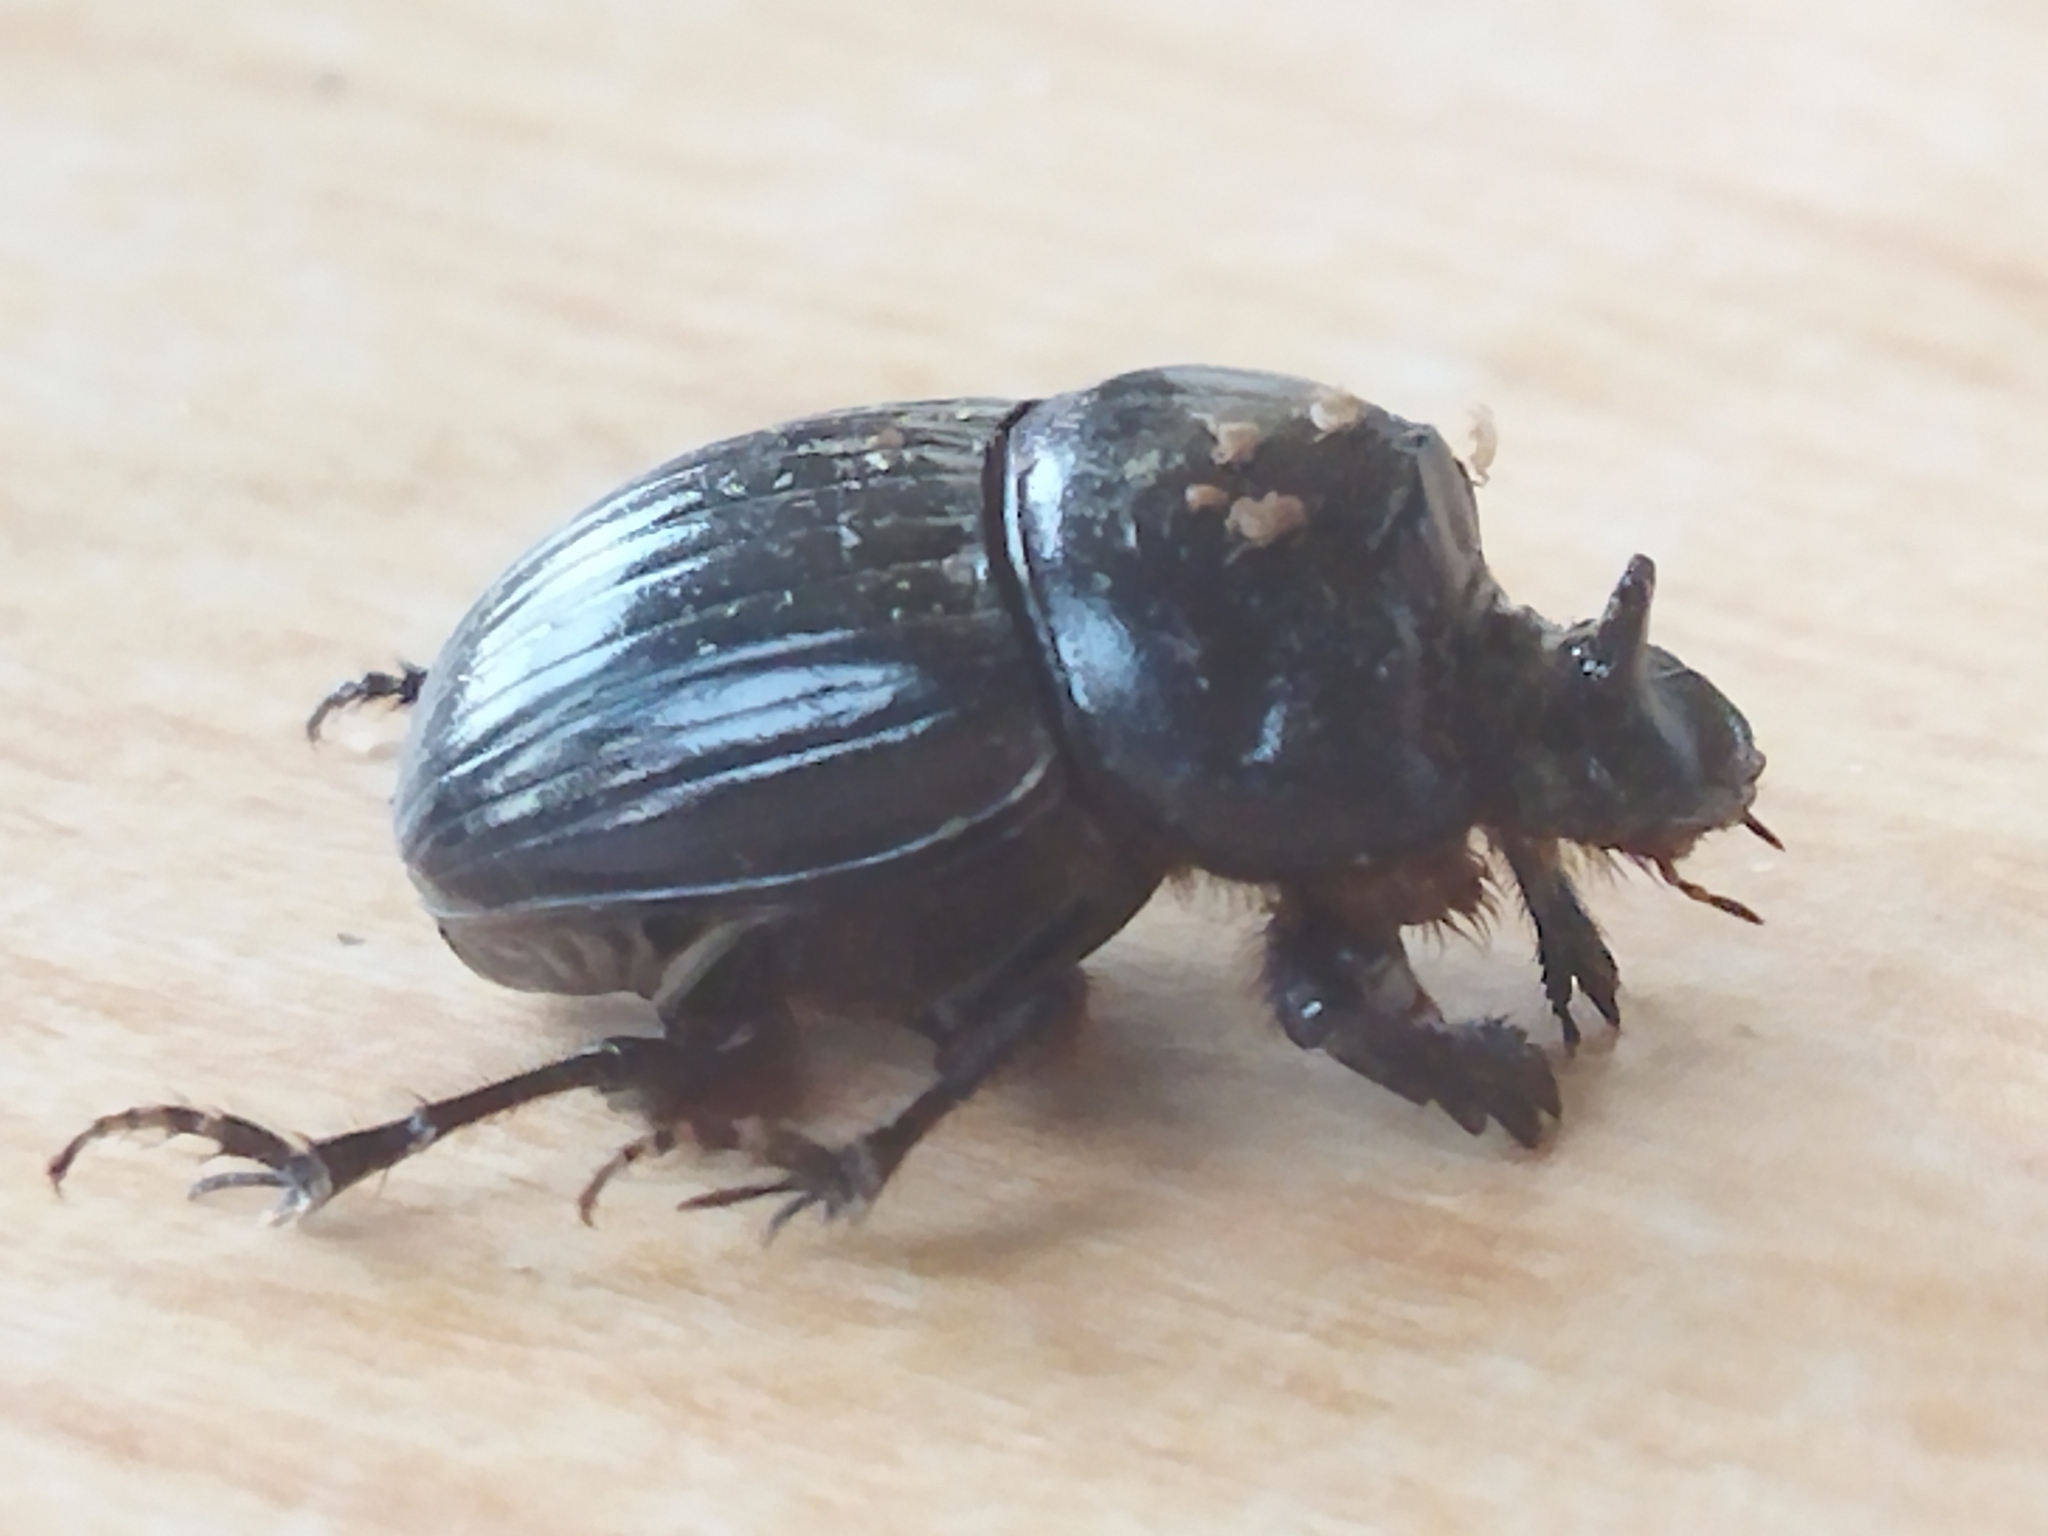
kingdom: Animalia
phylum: Arthropoda
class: Insecta
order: Coleoptera
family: Scarabaeidae
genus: Copris
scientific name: Copris lunaris
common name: Horned dung beetle
